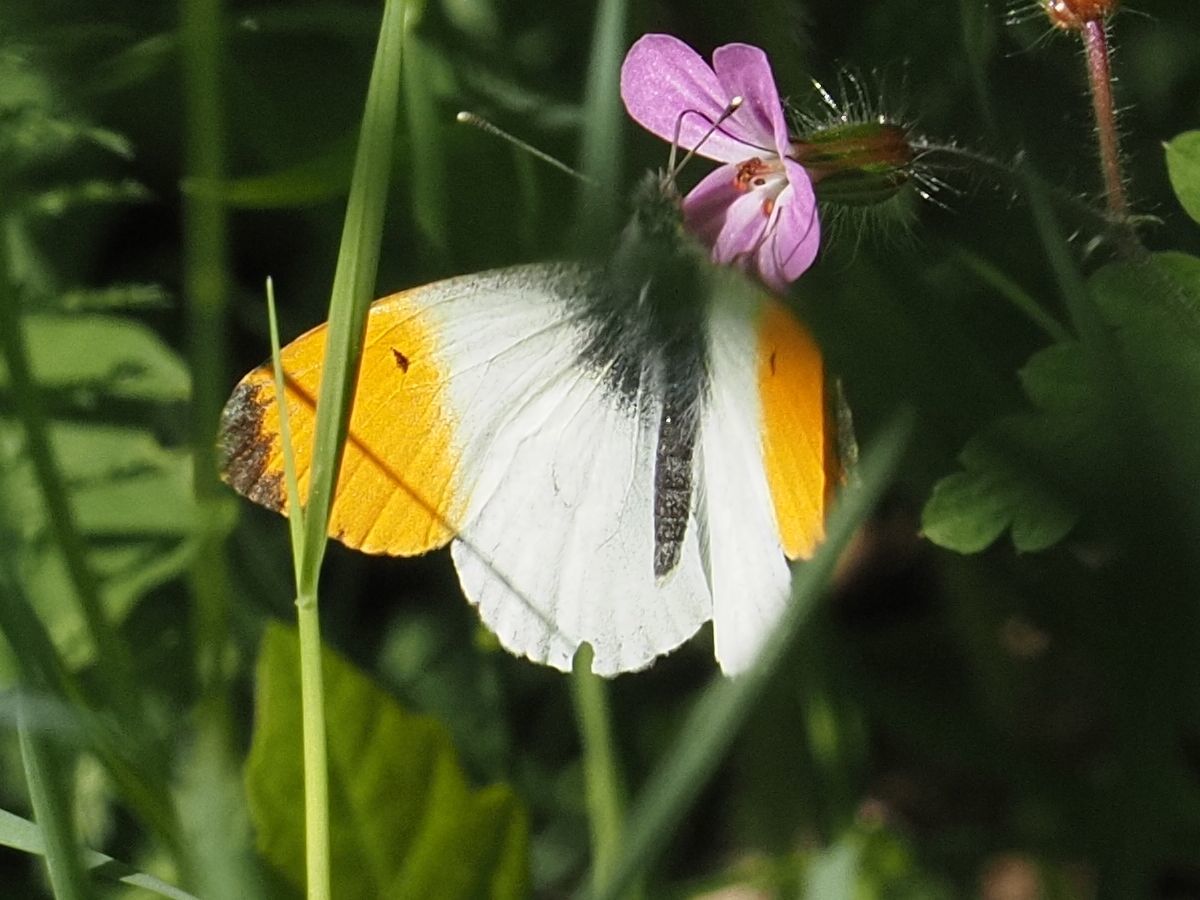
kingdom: Animalia
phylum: Arthropoda
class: Insecta
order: Lepidoptera
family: Pieridae
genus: Anthocharis
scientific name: Anthocharis cardamines
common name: Orange-tip
